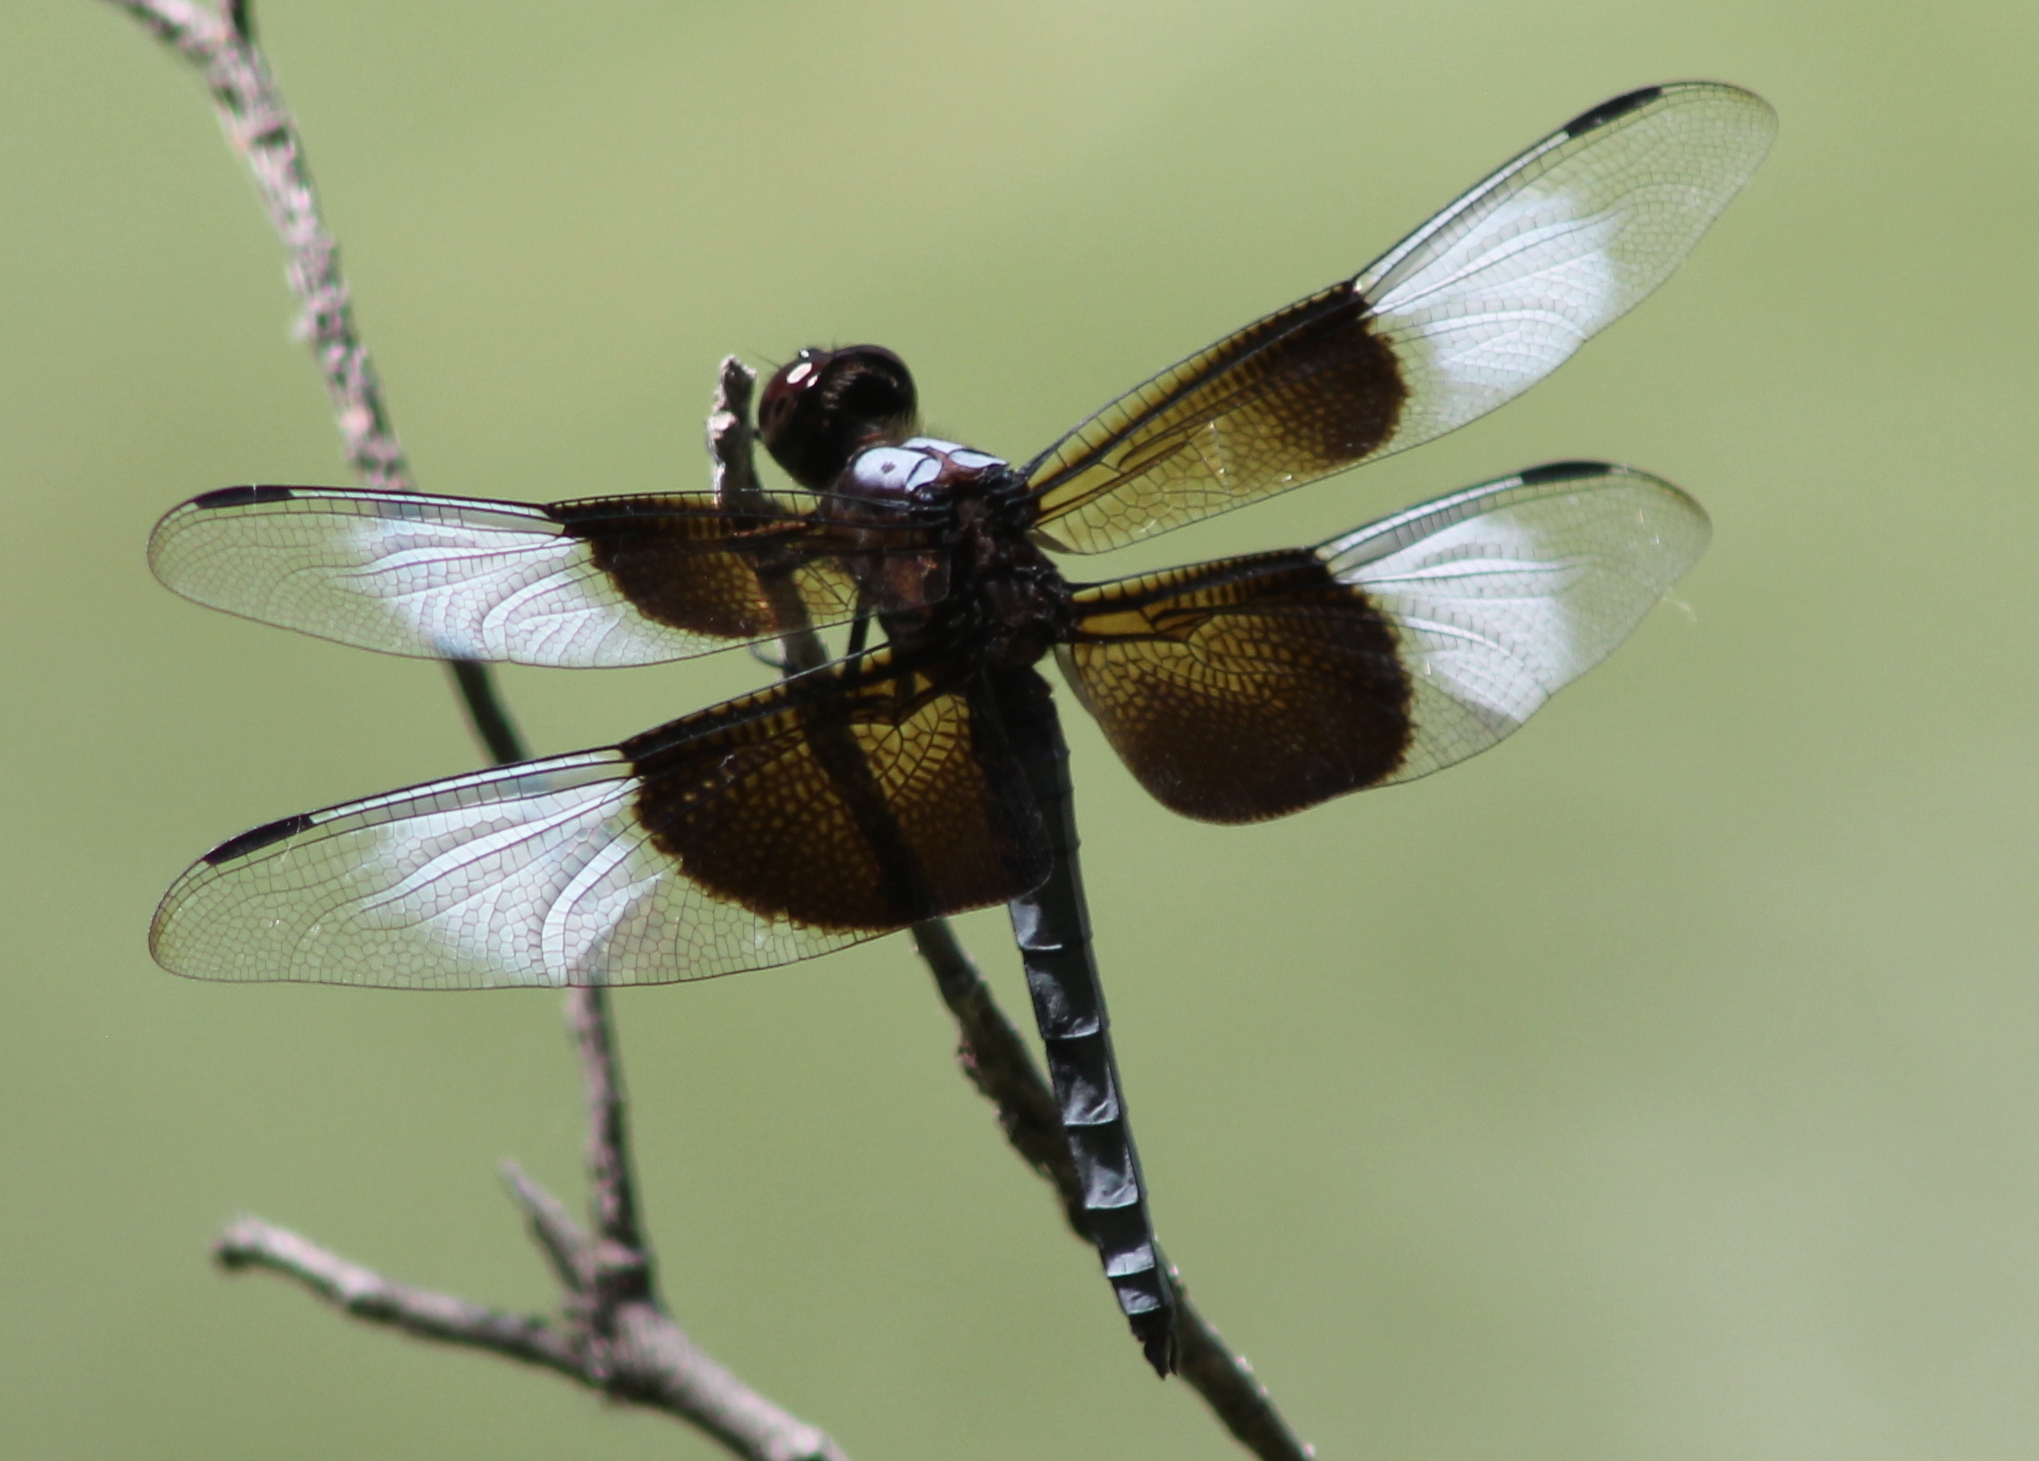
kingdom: Animalia
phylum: Arthropoda
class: Insecta
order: Odonata
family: Libellulidae
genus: Libellula
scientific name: Libellula luctuosa
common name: Widow skimmer
